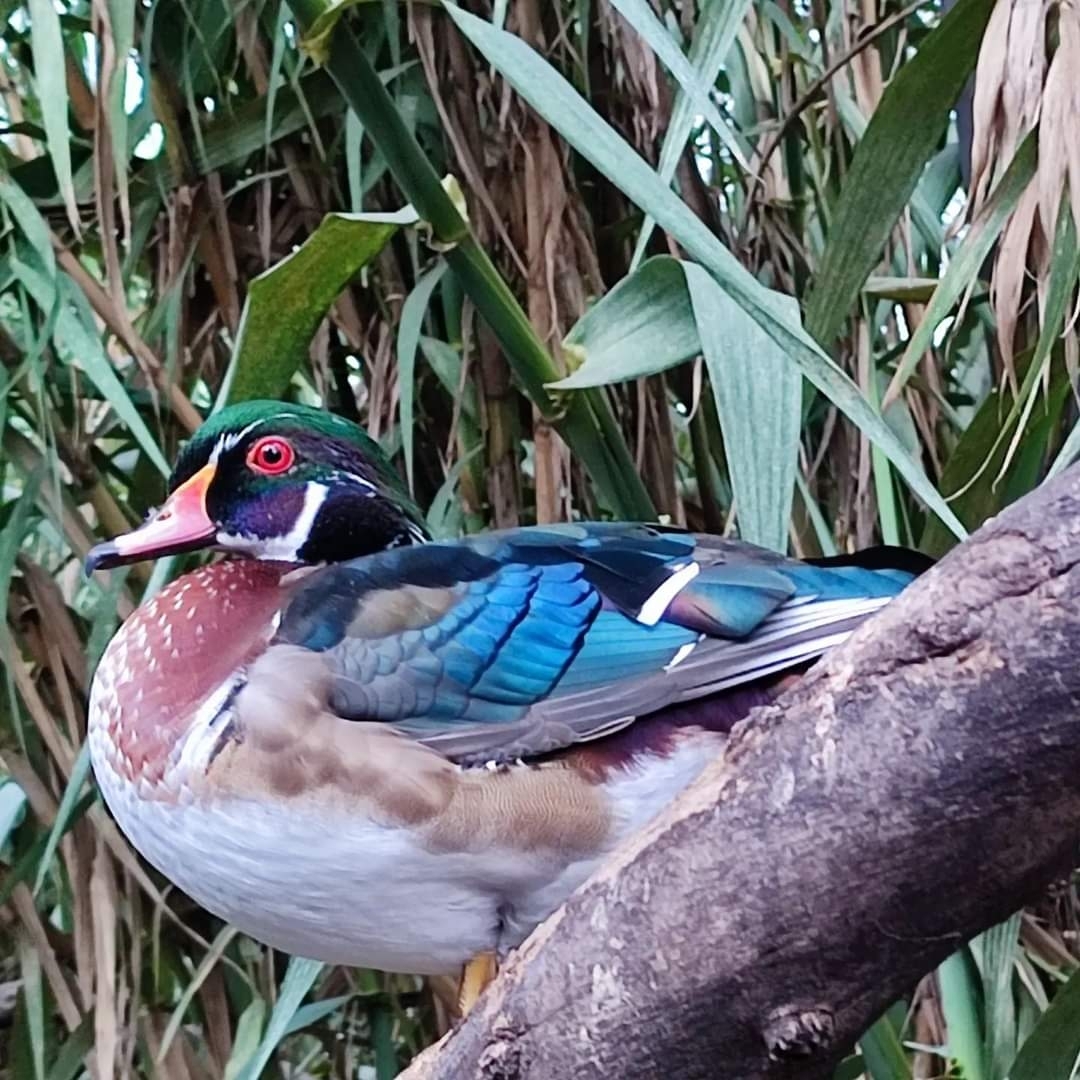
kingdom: Animalia
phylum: Chordata
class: Aves
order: Anseriformes
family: Anatidae
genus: Aix
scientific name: Aix sponsa
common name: Wood duck
